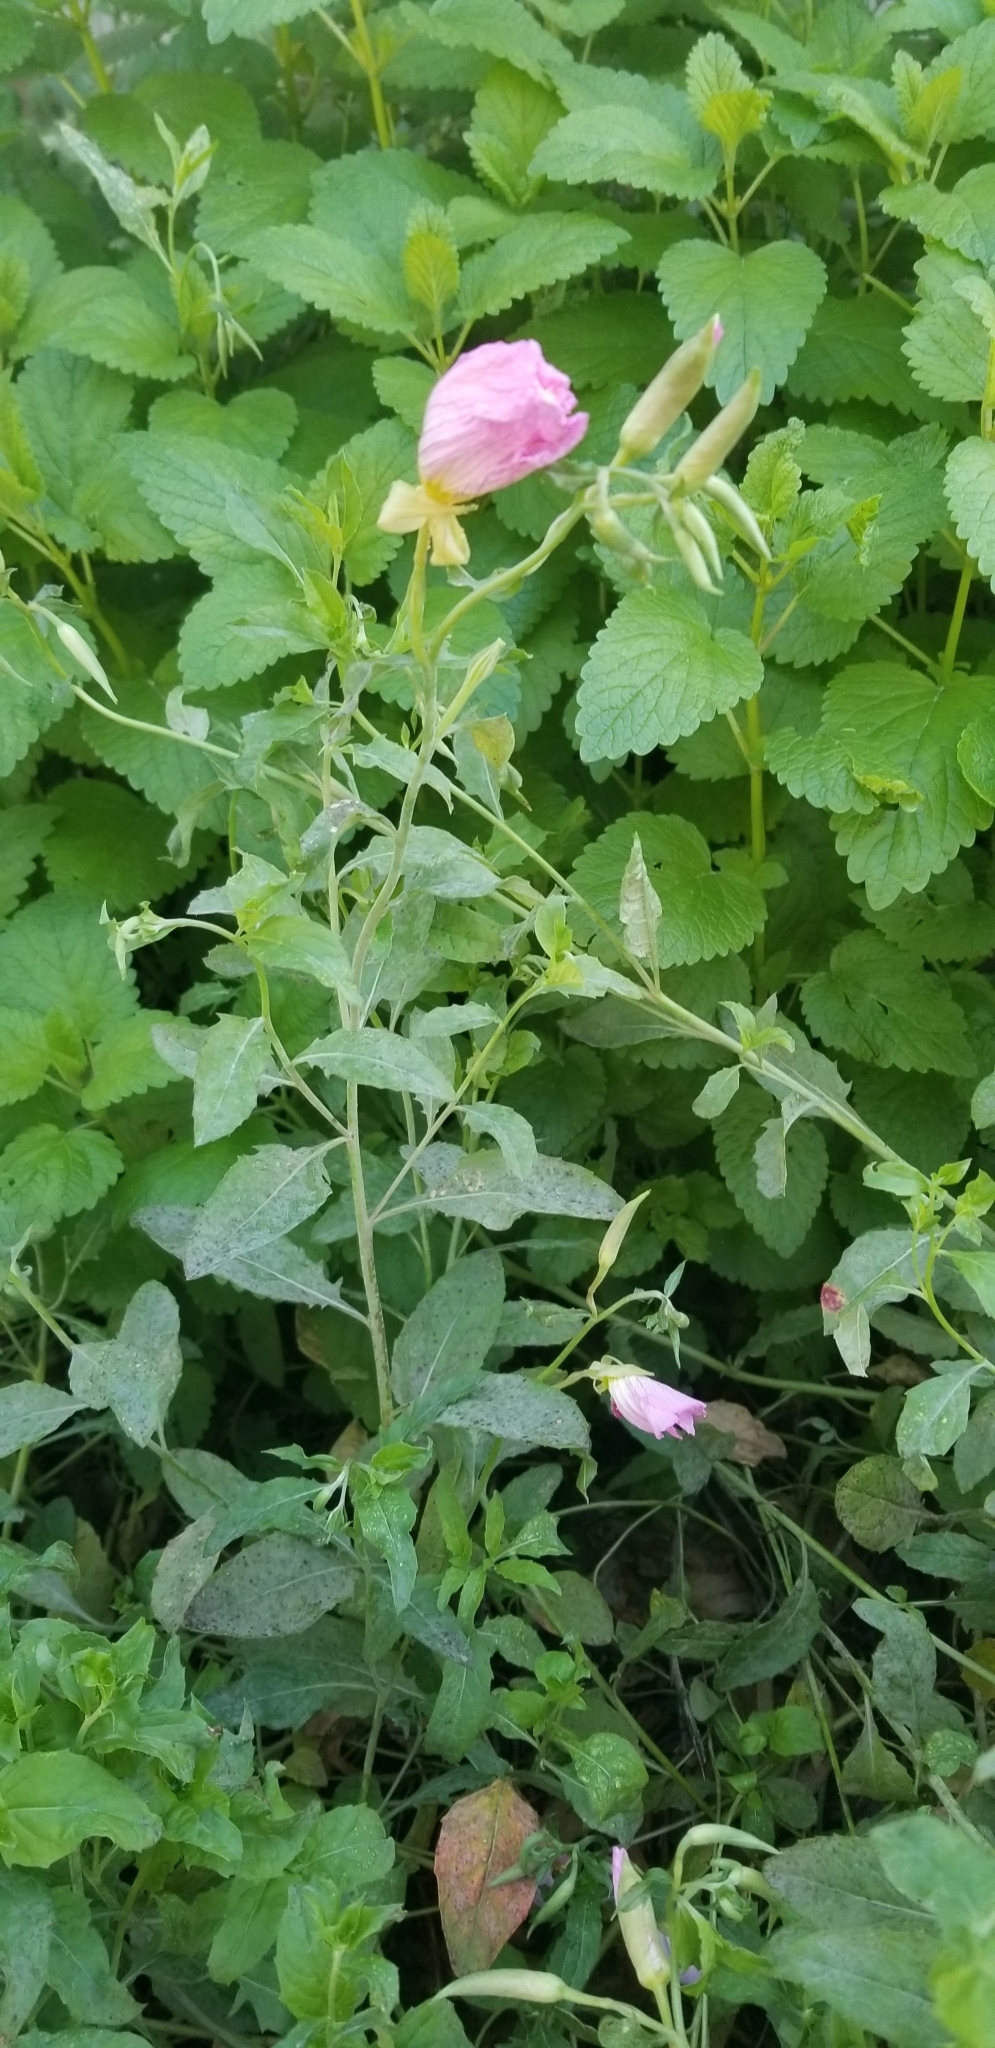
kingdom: Plantae
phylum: Tracheophyta
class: Magnoliopsida
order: Myrtales
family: Onagraceae
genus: Oenothera
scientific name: Oenothera speciosa
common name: White evening-primrose
